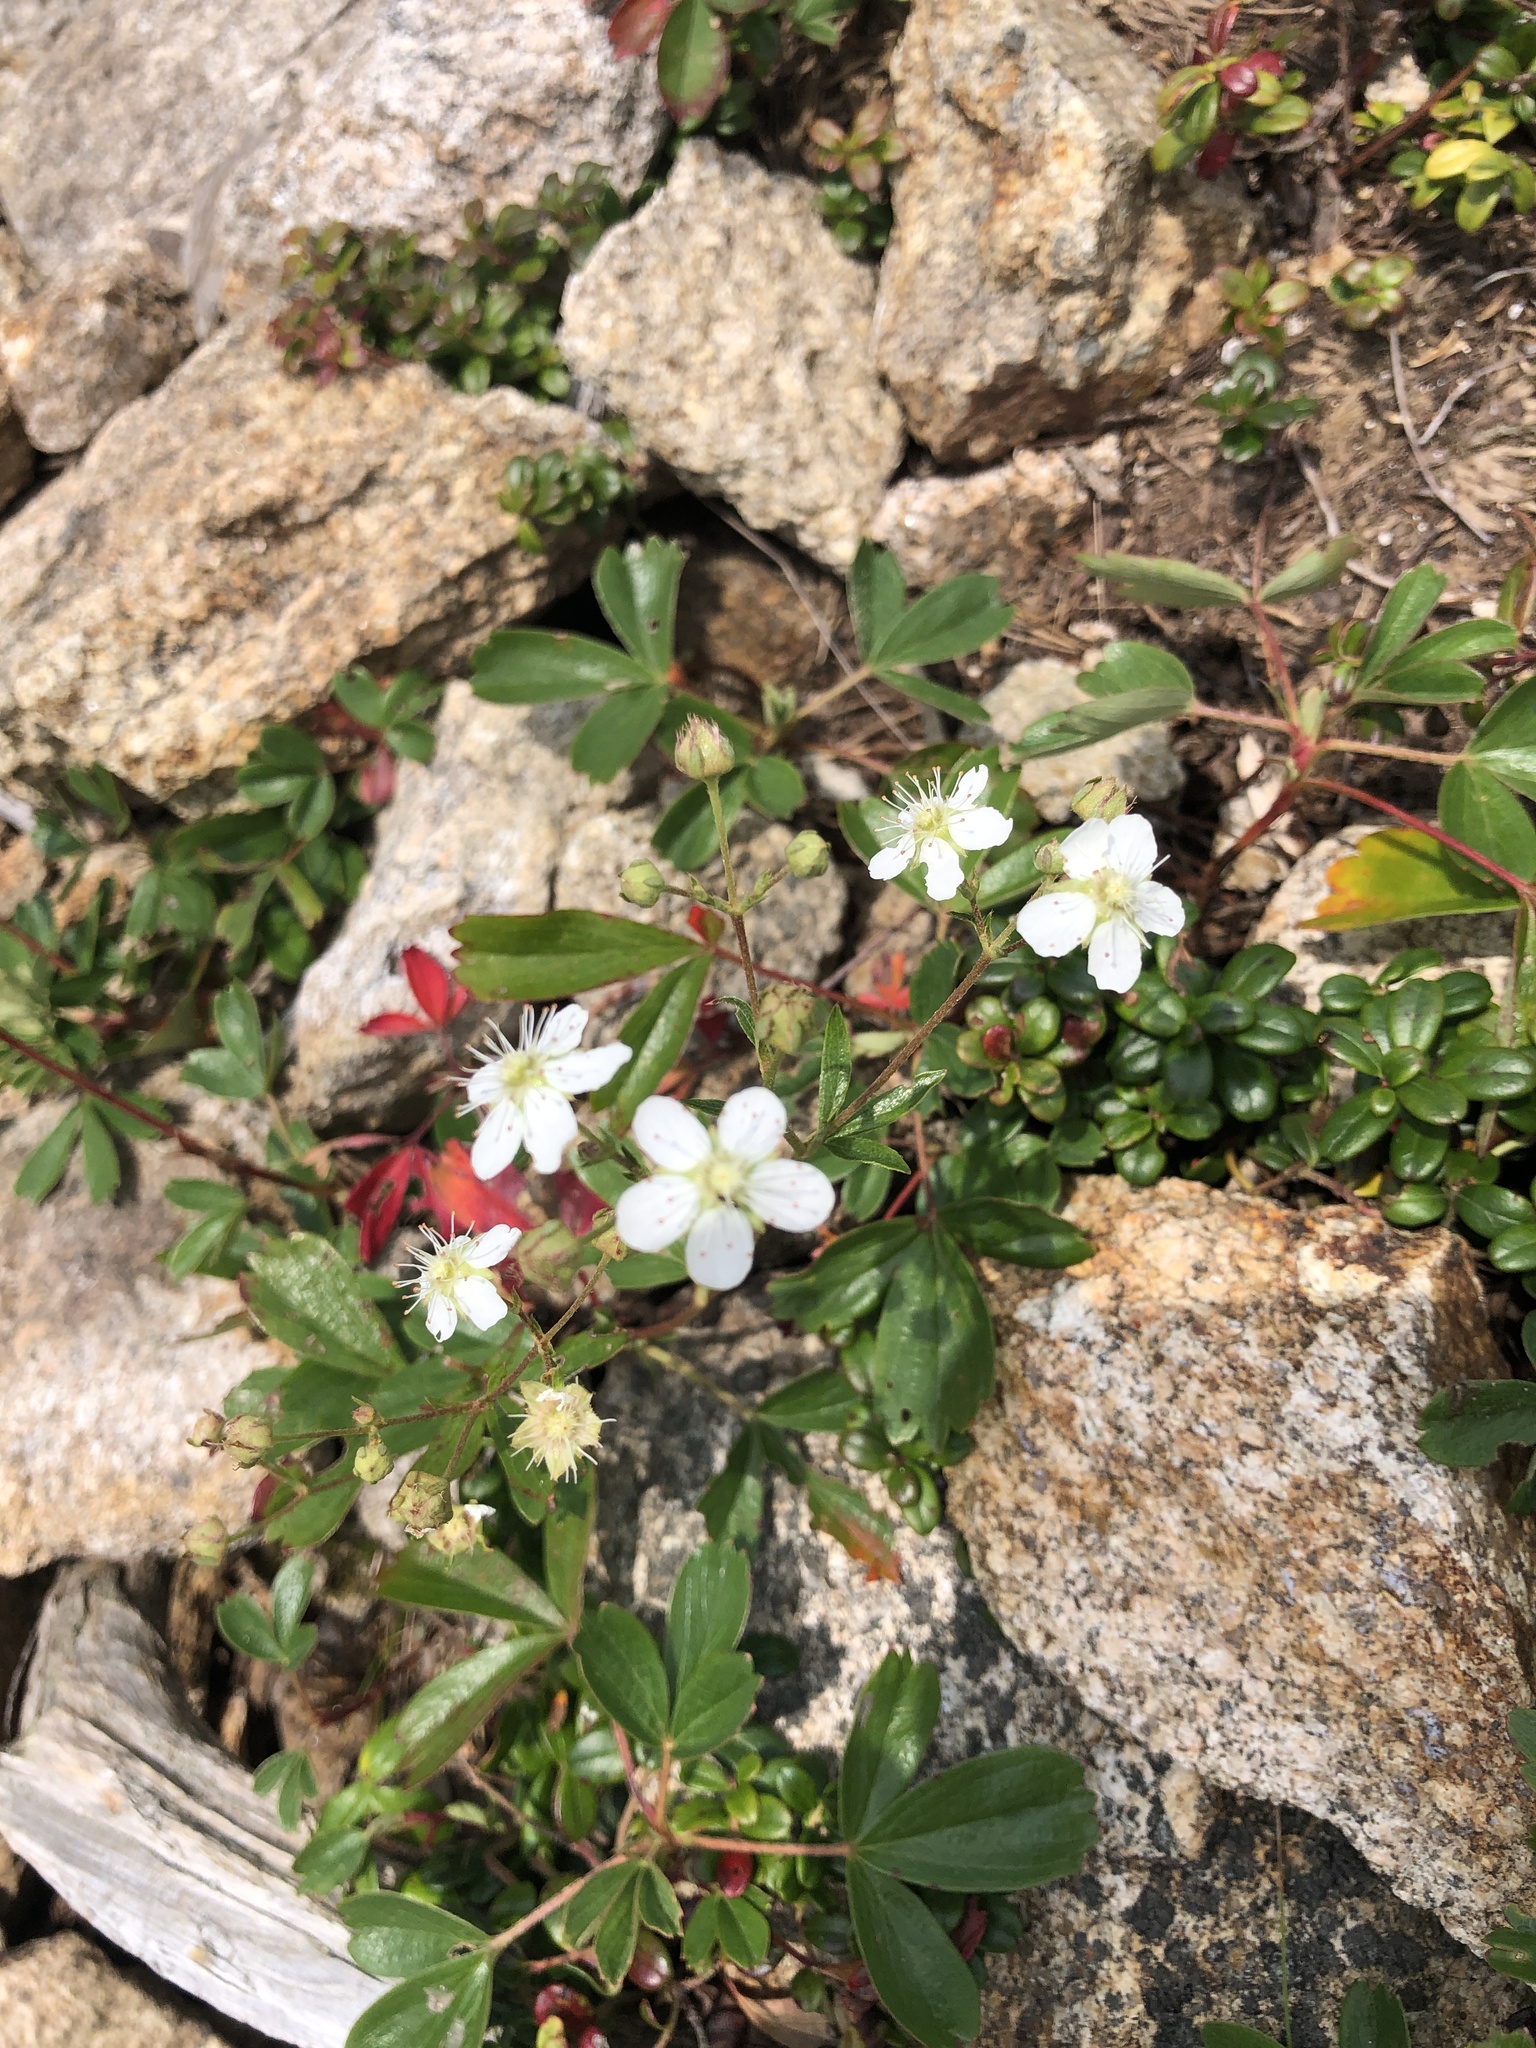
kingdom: Plantae
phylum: Tracheophyta
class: Magnoliopsida
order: Rosales
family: Rosaceae
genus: Sibbaldia
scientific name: Sibbaldia tridentata
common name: Three-toothed cinquefoil
